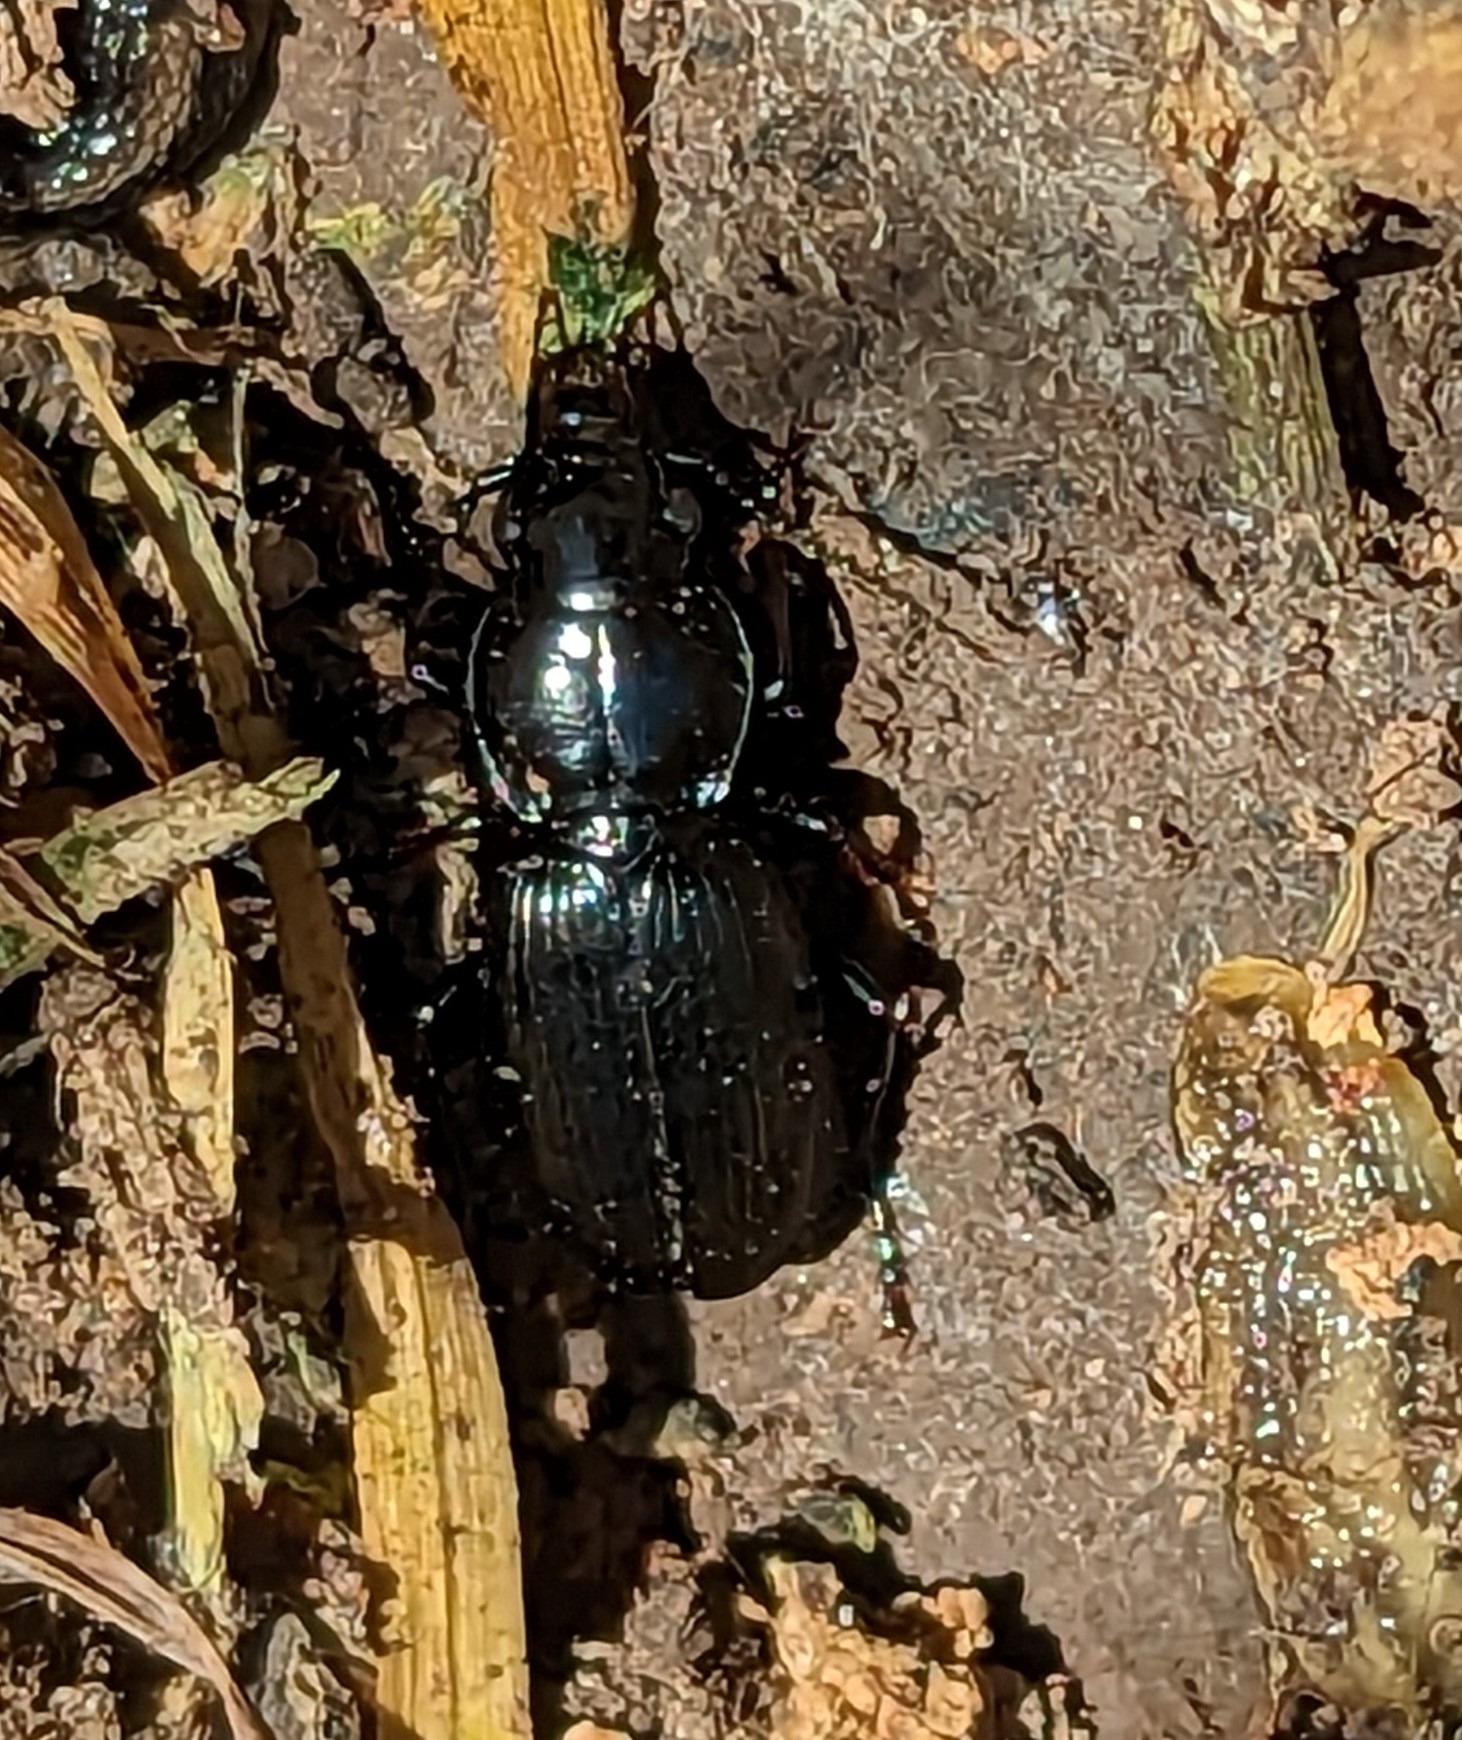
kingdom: Animalia
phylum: Arthropoda
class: Insecta
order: Coleoptera
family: Carabidae
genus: Pterostichus
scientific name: Pterostichus madidus
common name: Black clock
